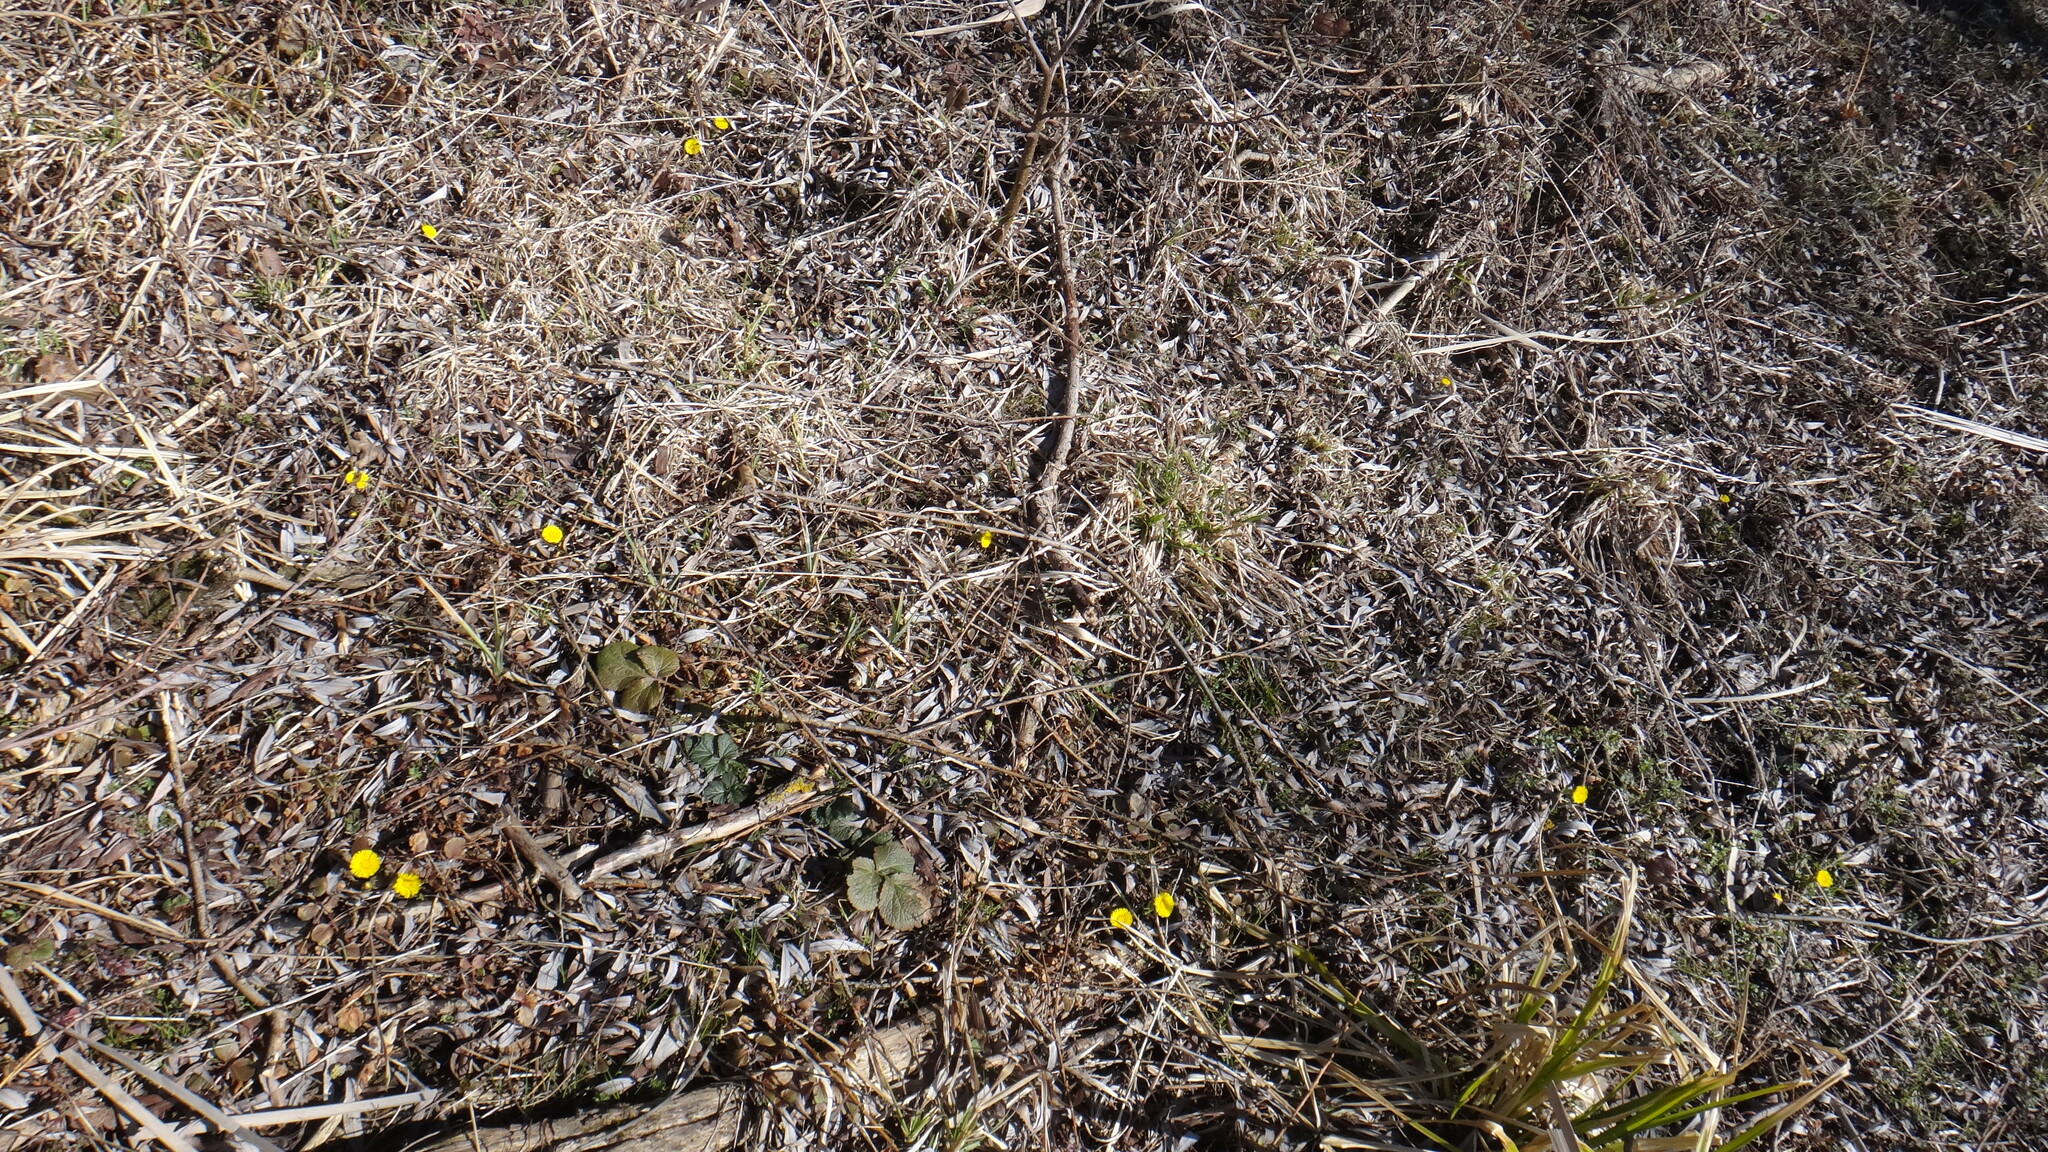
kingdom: Plantae
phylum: Tracheophyta
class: Magnoliopsida
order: Asterales
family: Asteraceae
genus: Tussilago
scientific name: Tussilago farfara
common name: Coltsfoot
